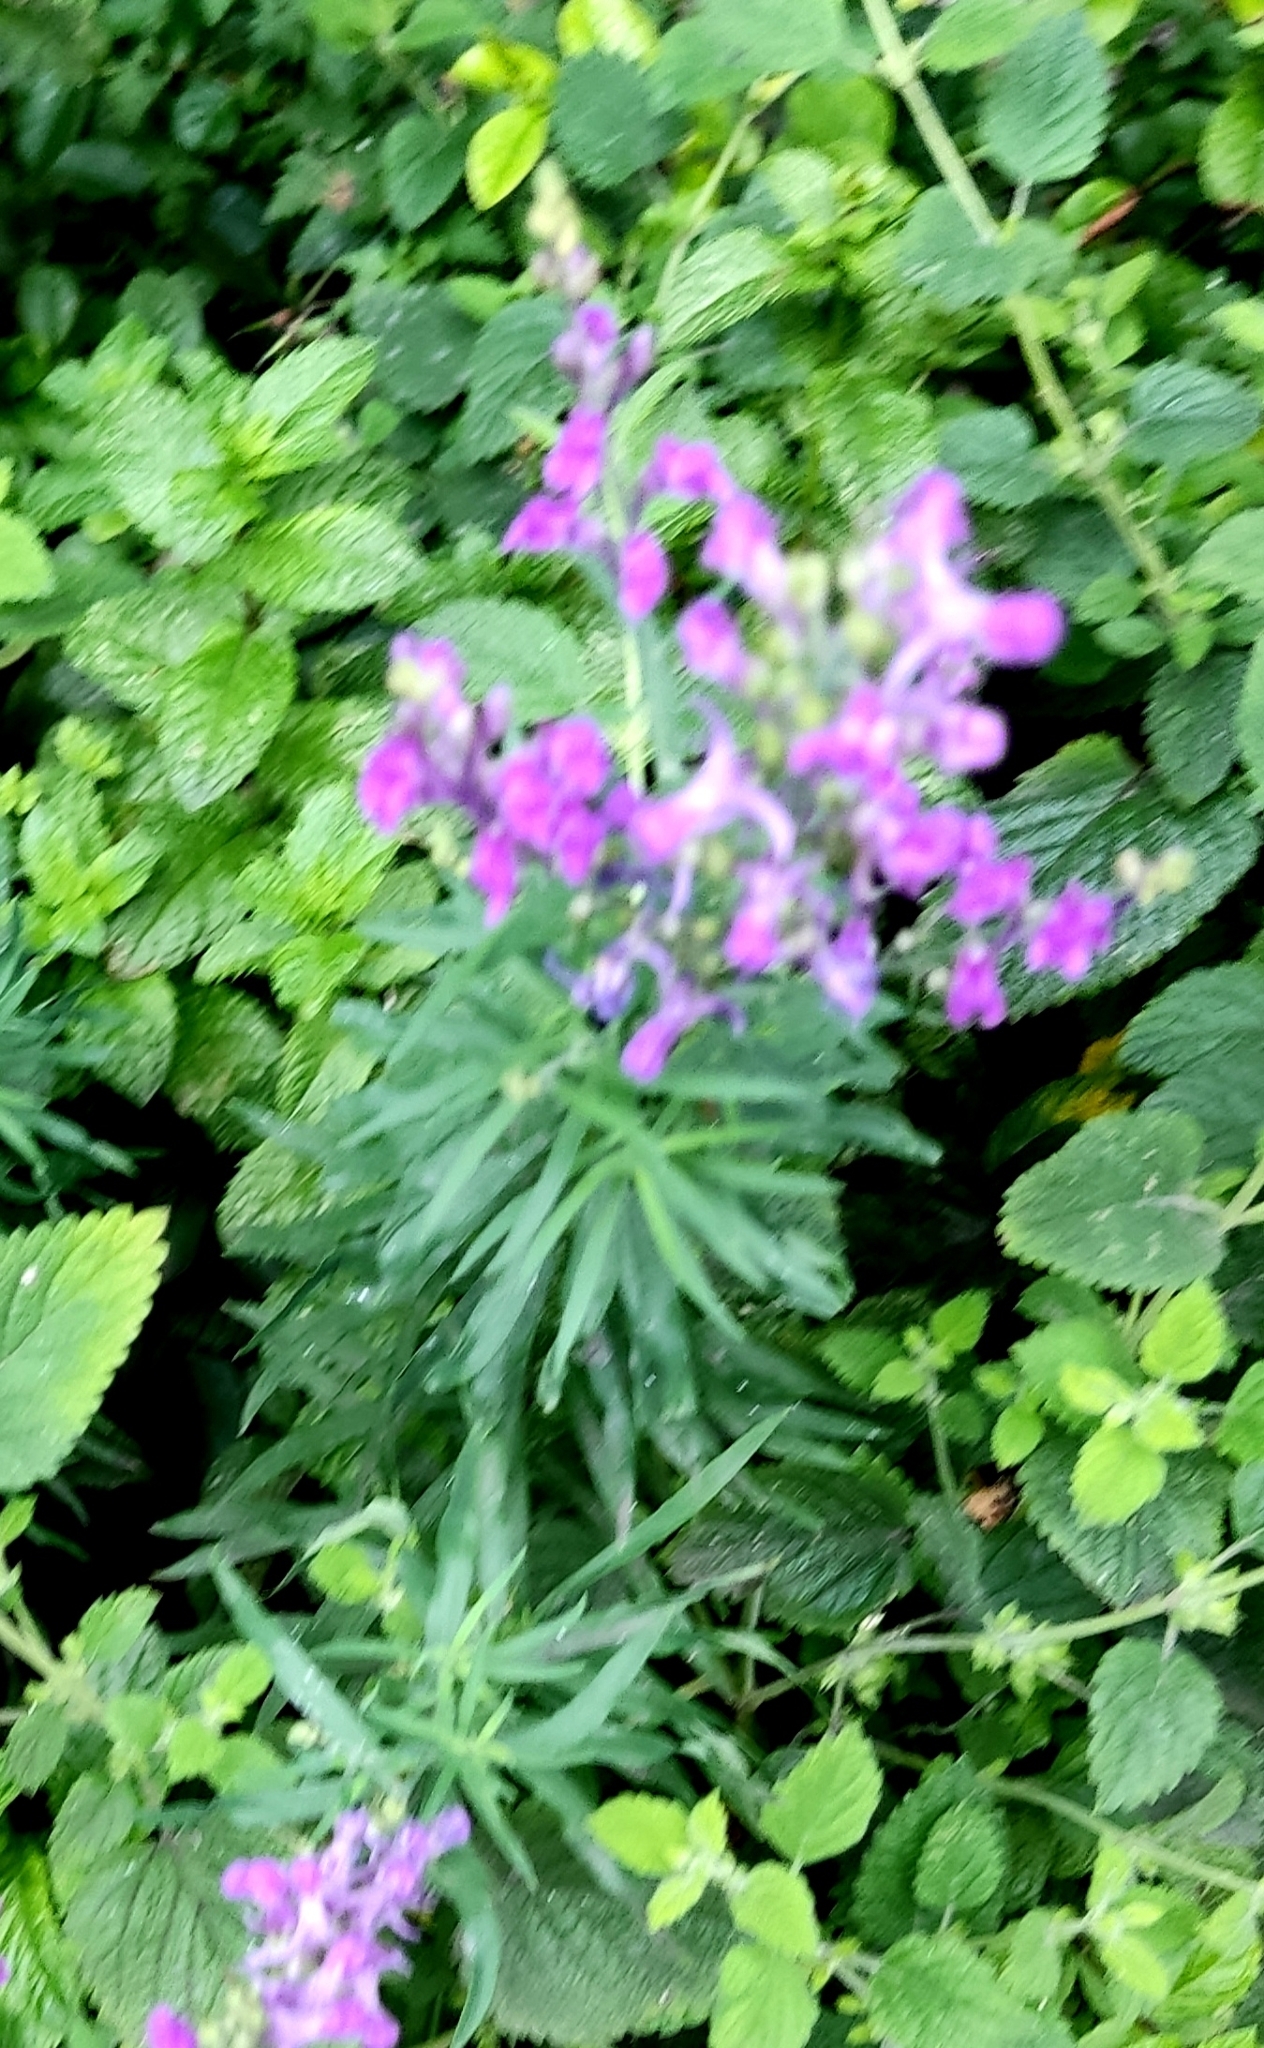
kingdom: Plantae
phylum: Tracheophyta
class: Magnoliopsida
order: Lamiales
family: Plantaginaceae
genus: Linaria
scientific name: Linaria purpurea
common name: Purple toadflax
